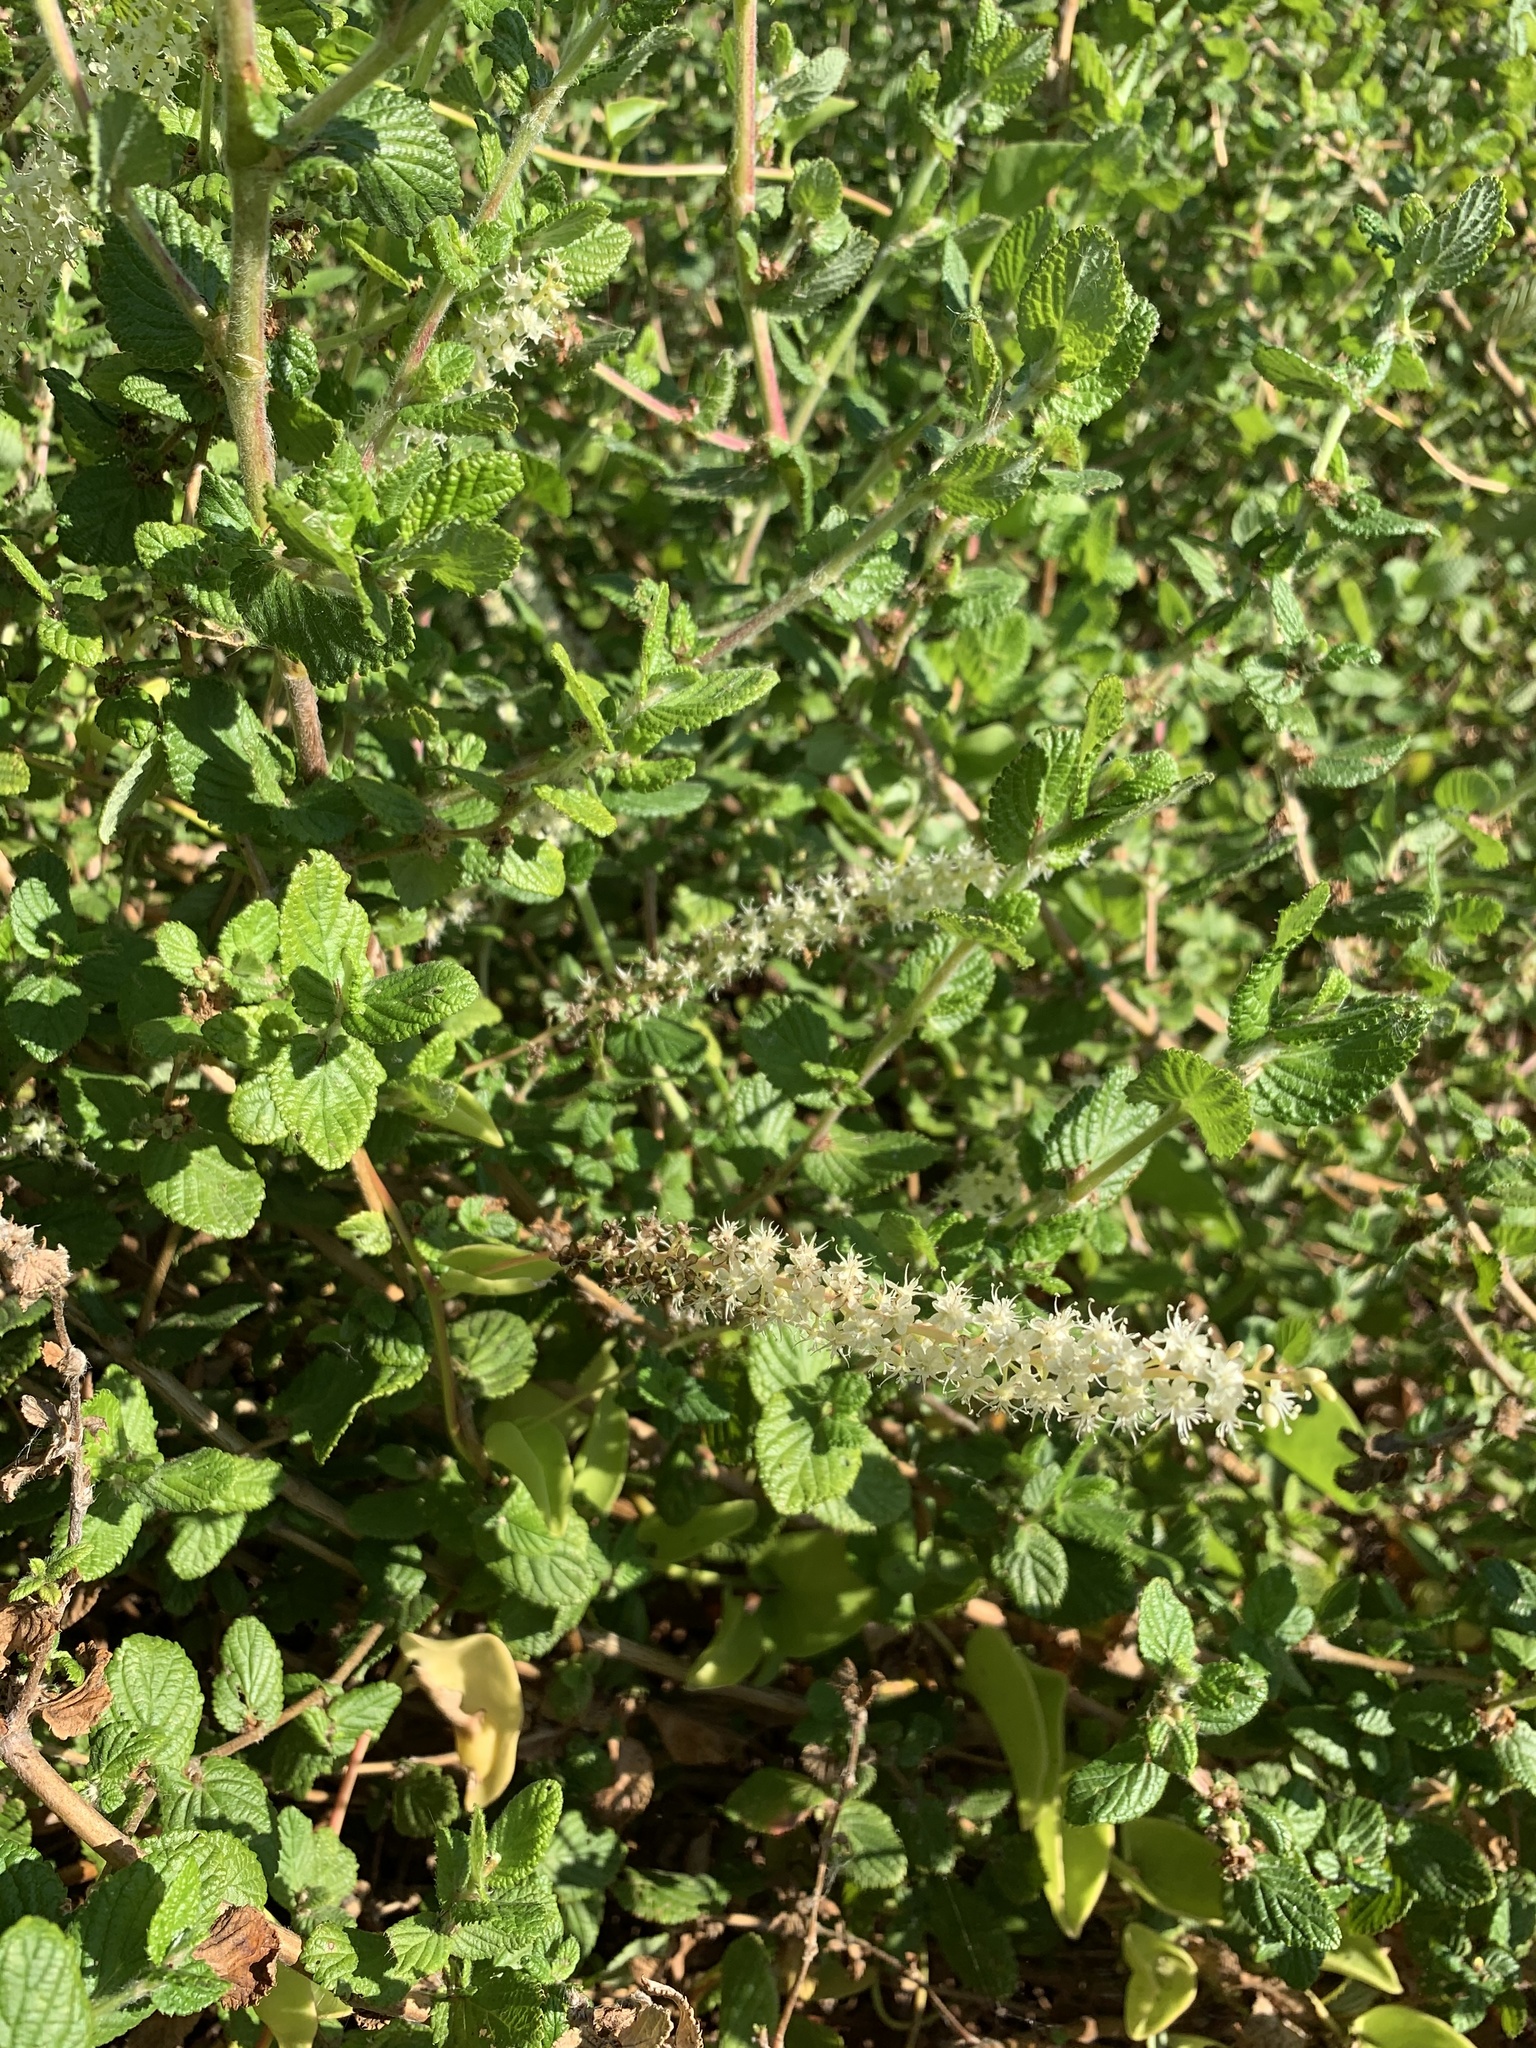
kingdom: Plantae
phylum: Tracheophyta
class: Magnoliopsida
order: Caryophyllales
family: Basellaceae
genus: Anredera
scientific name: Anredera cordifolia
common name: Heartleaf madeiravine
